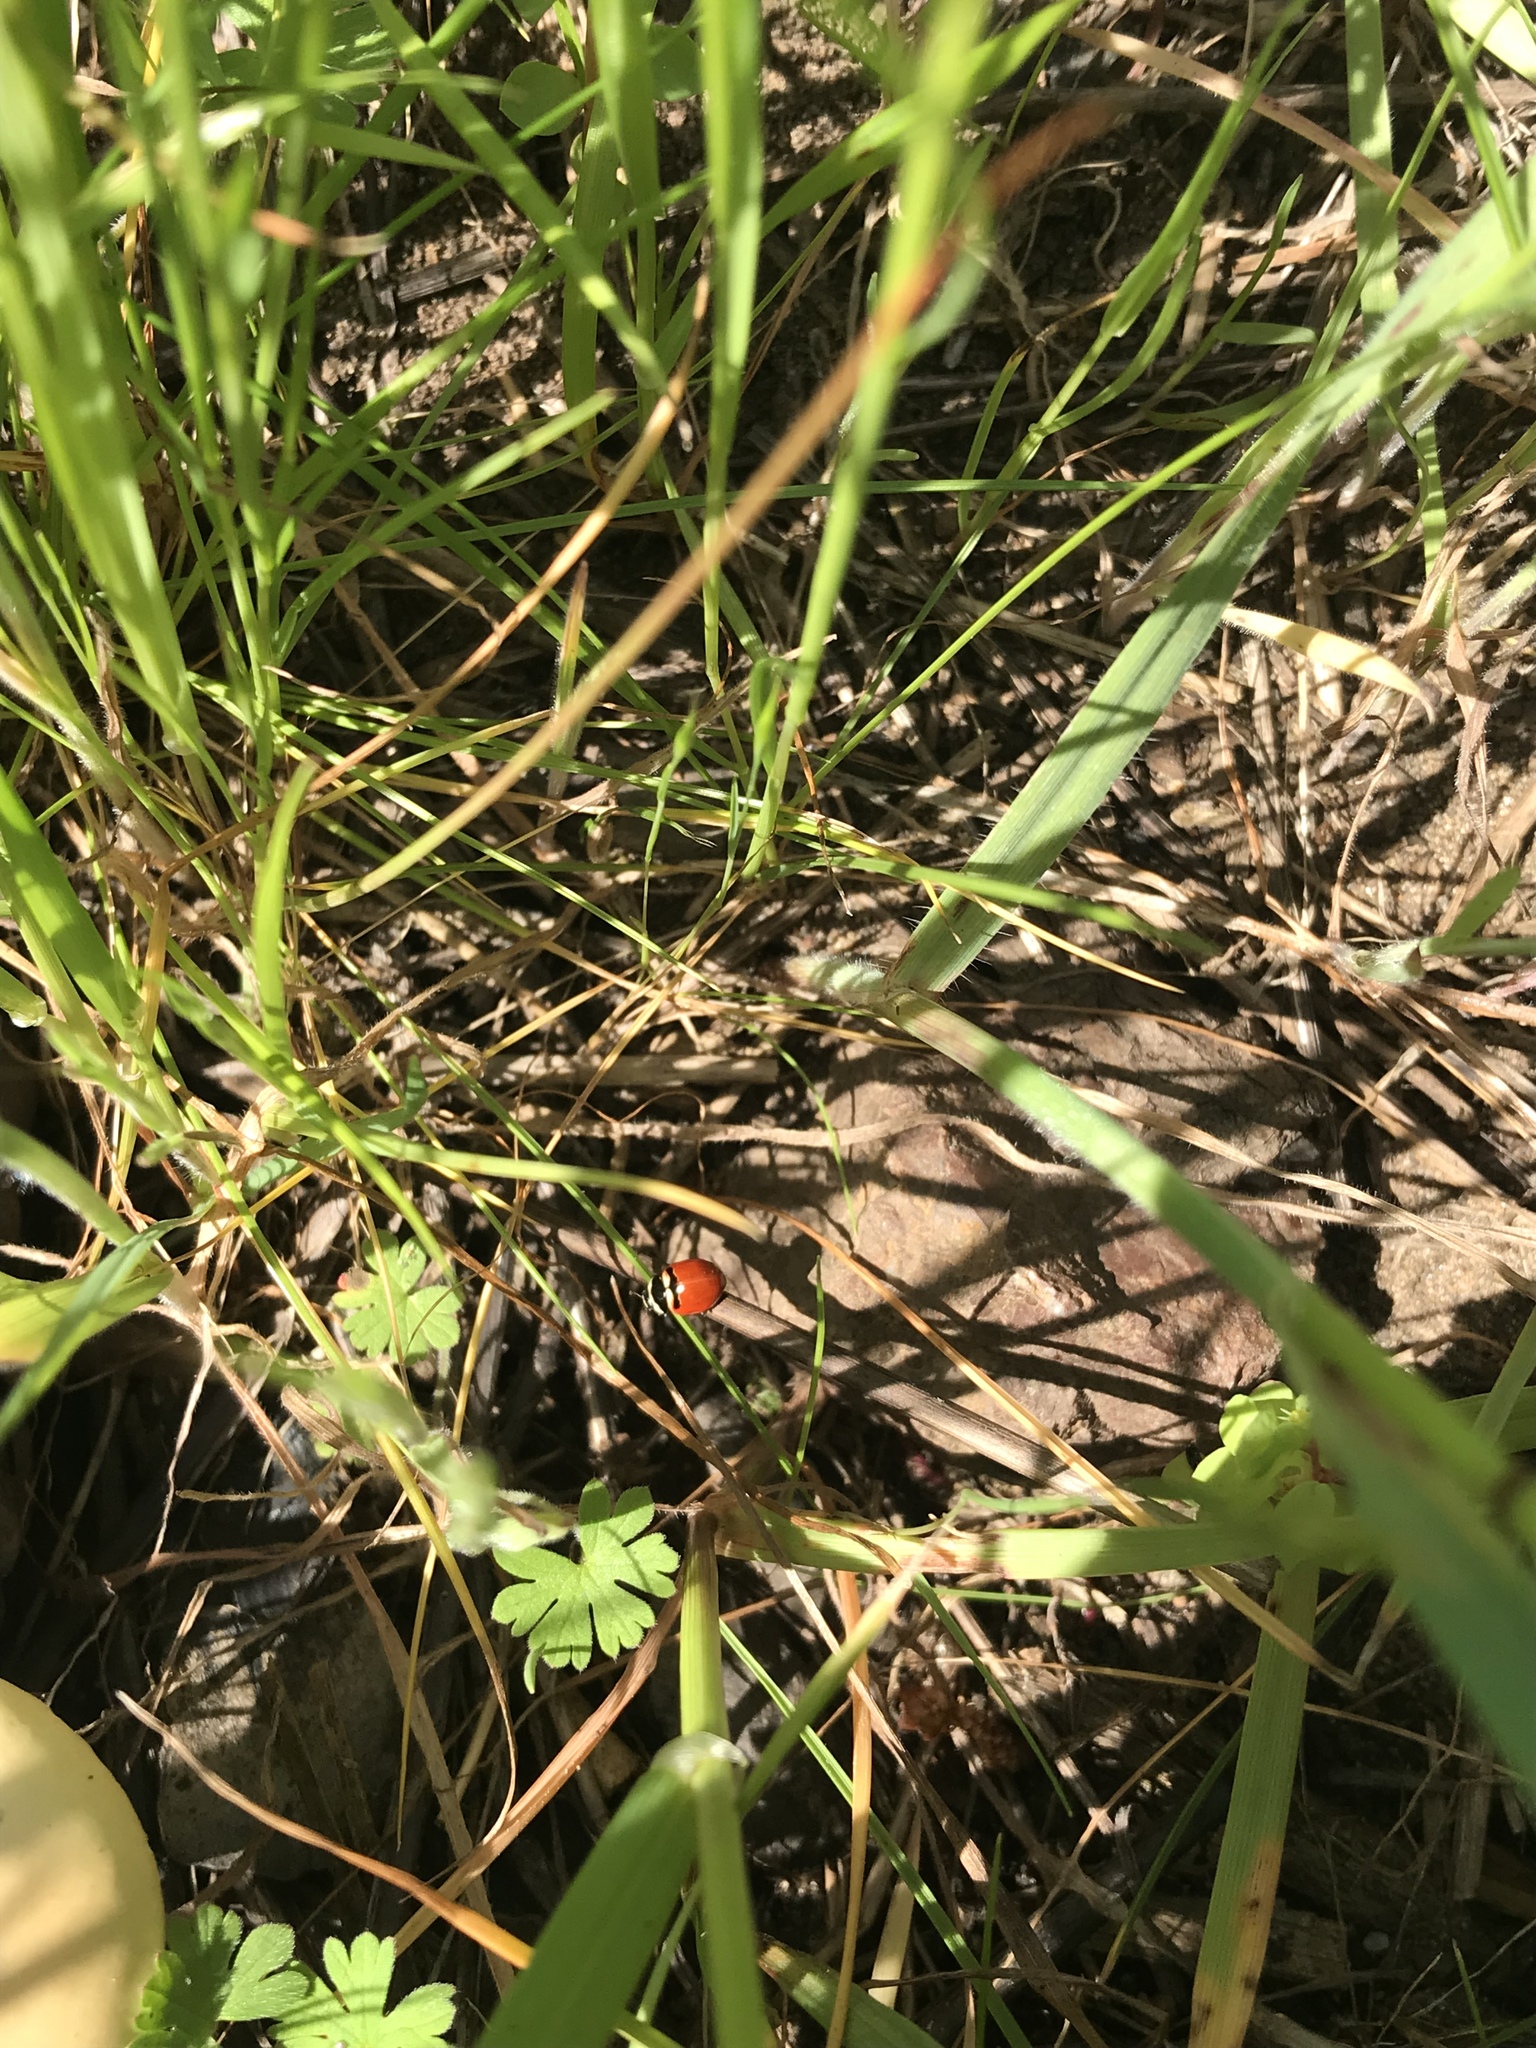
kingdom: Animalia
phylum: Arthropoda
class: Insecta
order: Coleoptera
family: Coccinellidae
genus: Coccinella
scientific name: Coccinella trifasciata
